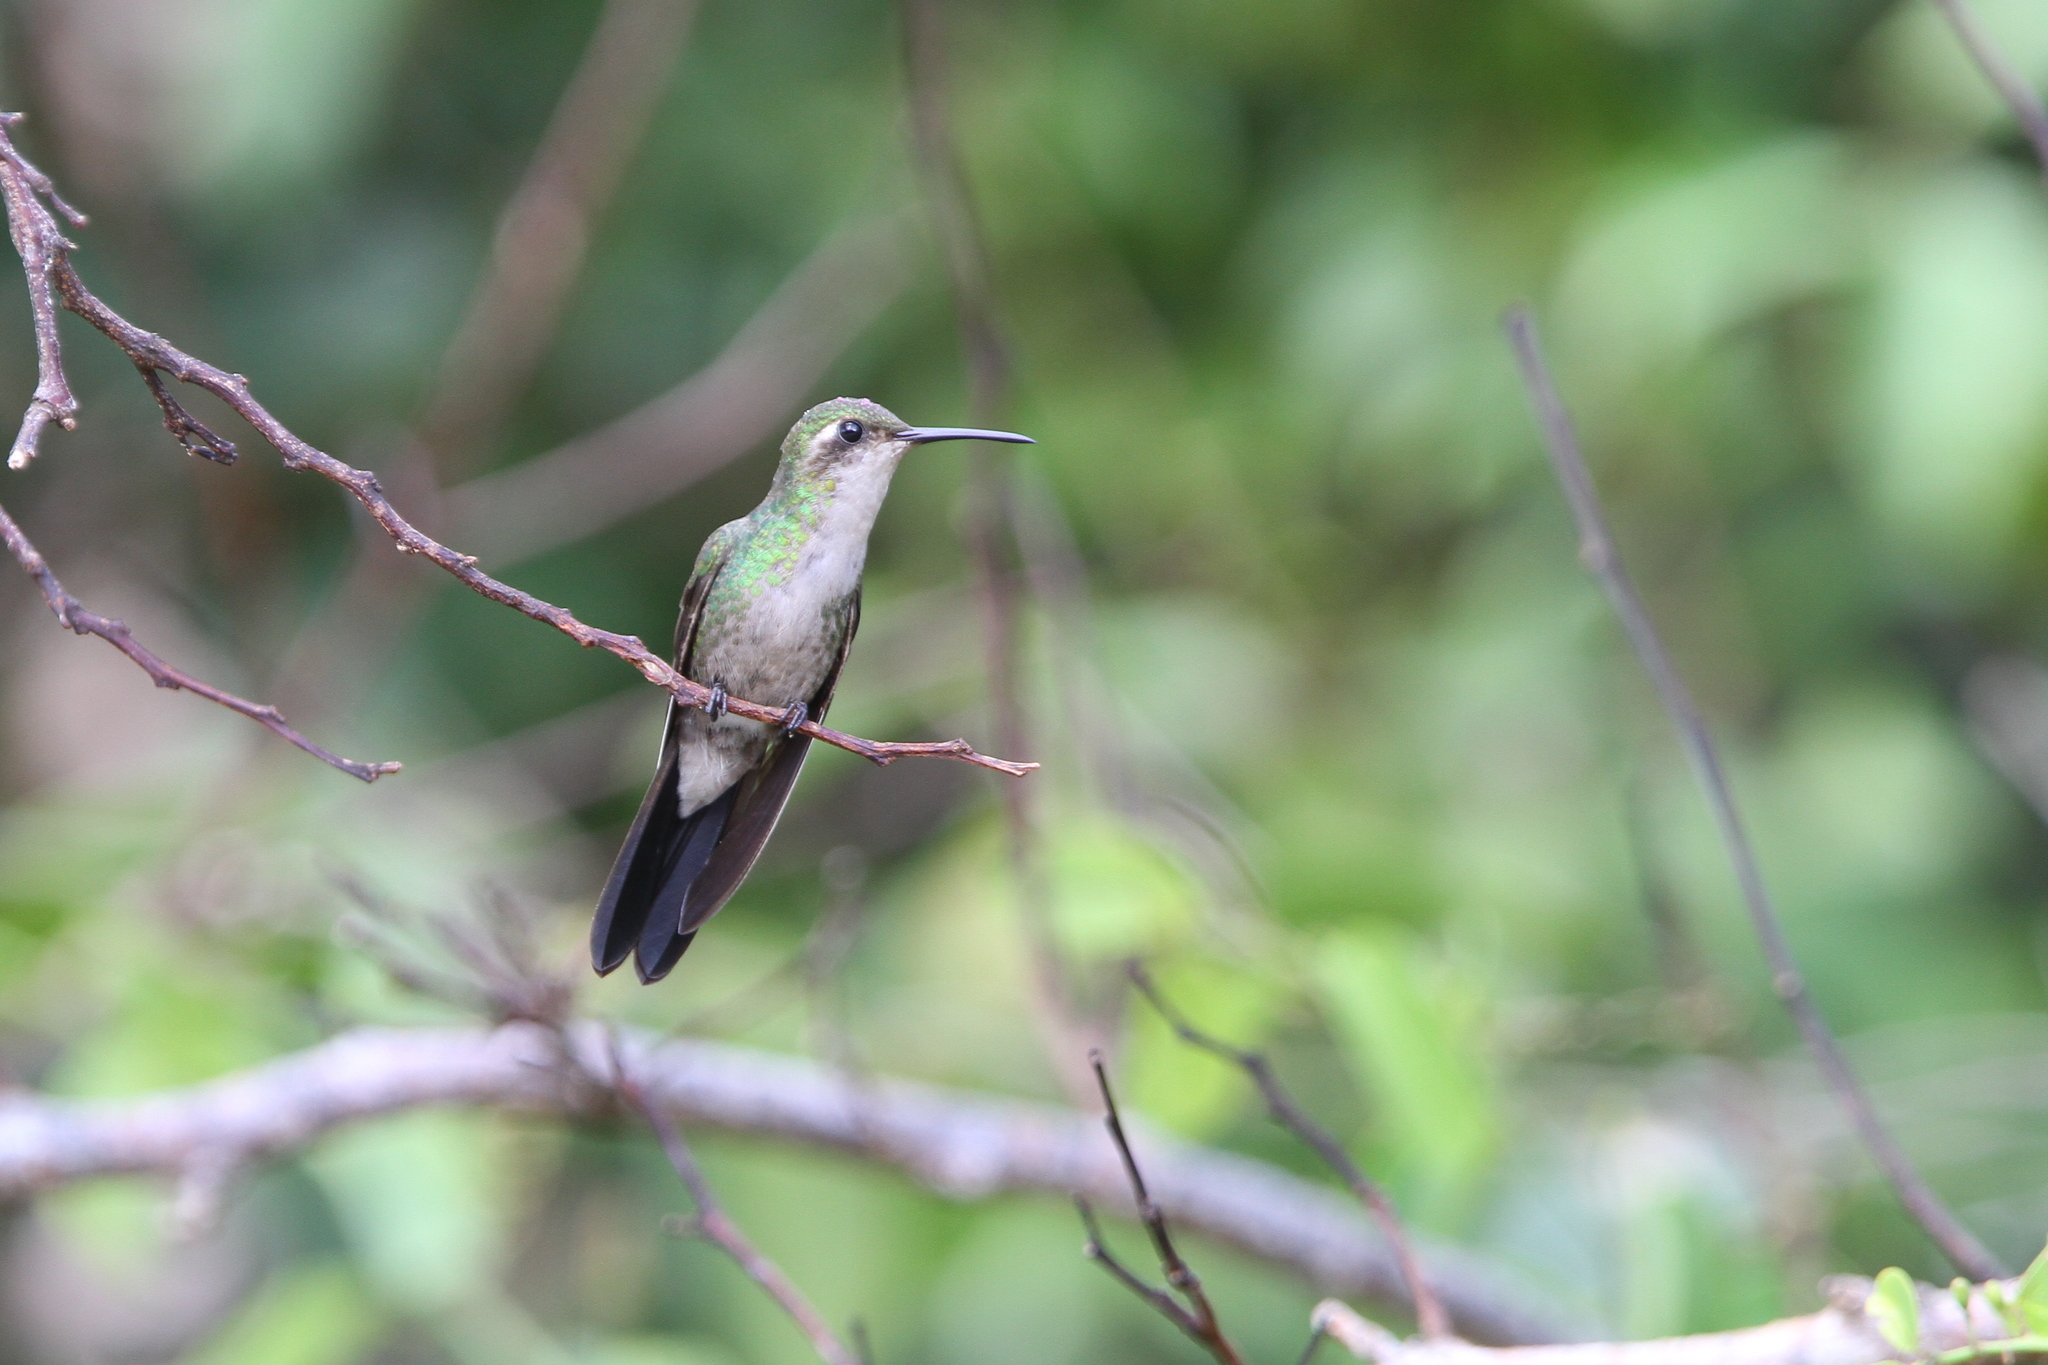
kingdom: Animalia
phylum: Chordata
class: Aves
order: Apodiformes
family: Trochilidae
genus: Riccordia
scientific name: Riccordia ricordii
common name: Cuban emerald
